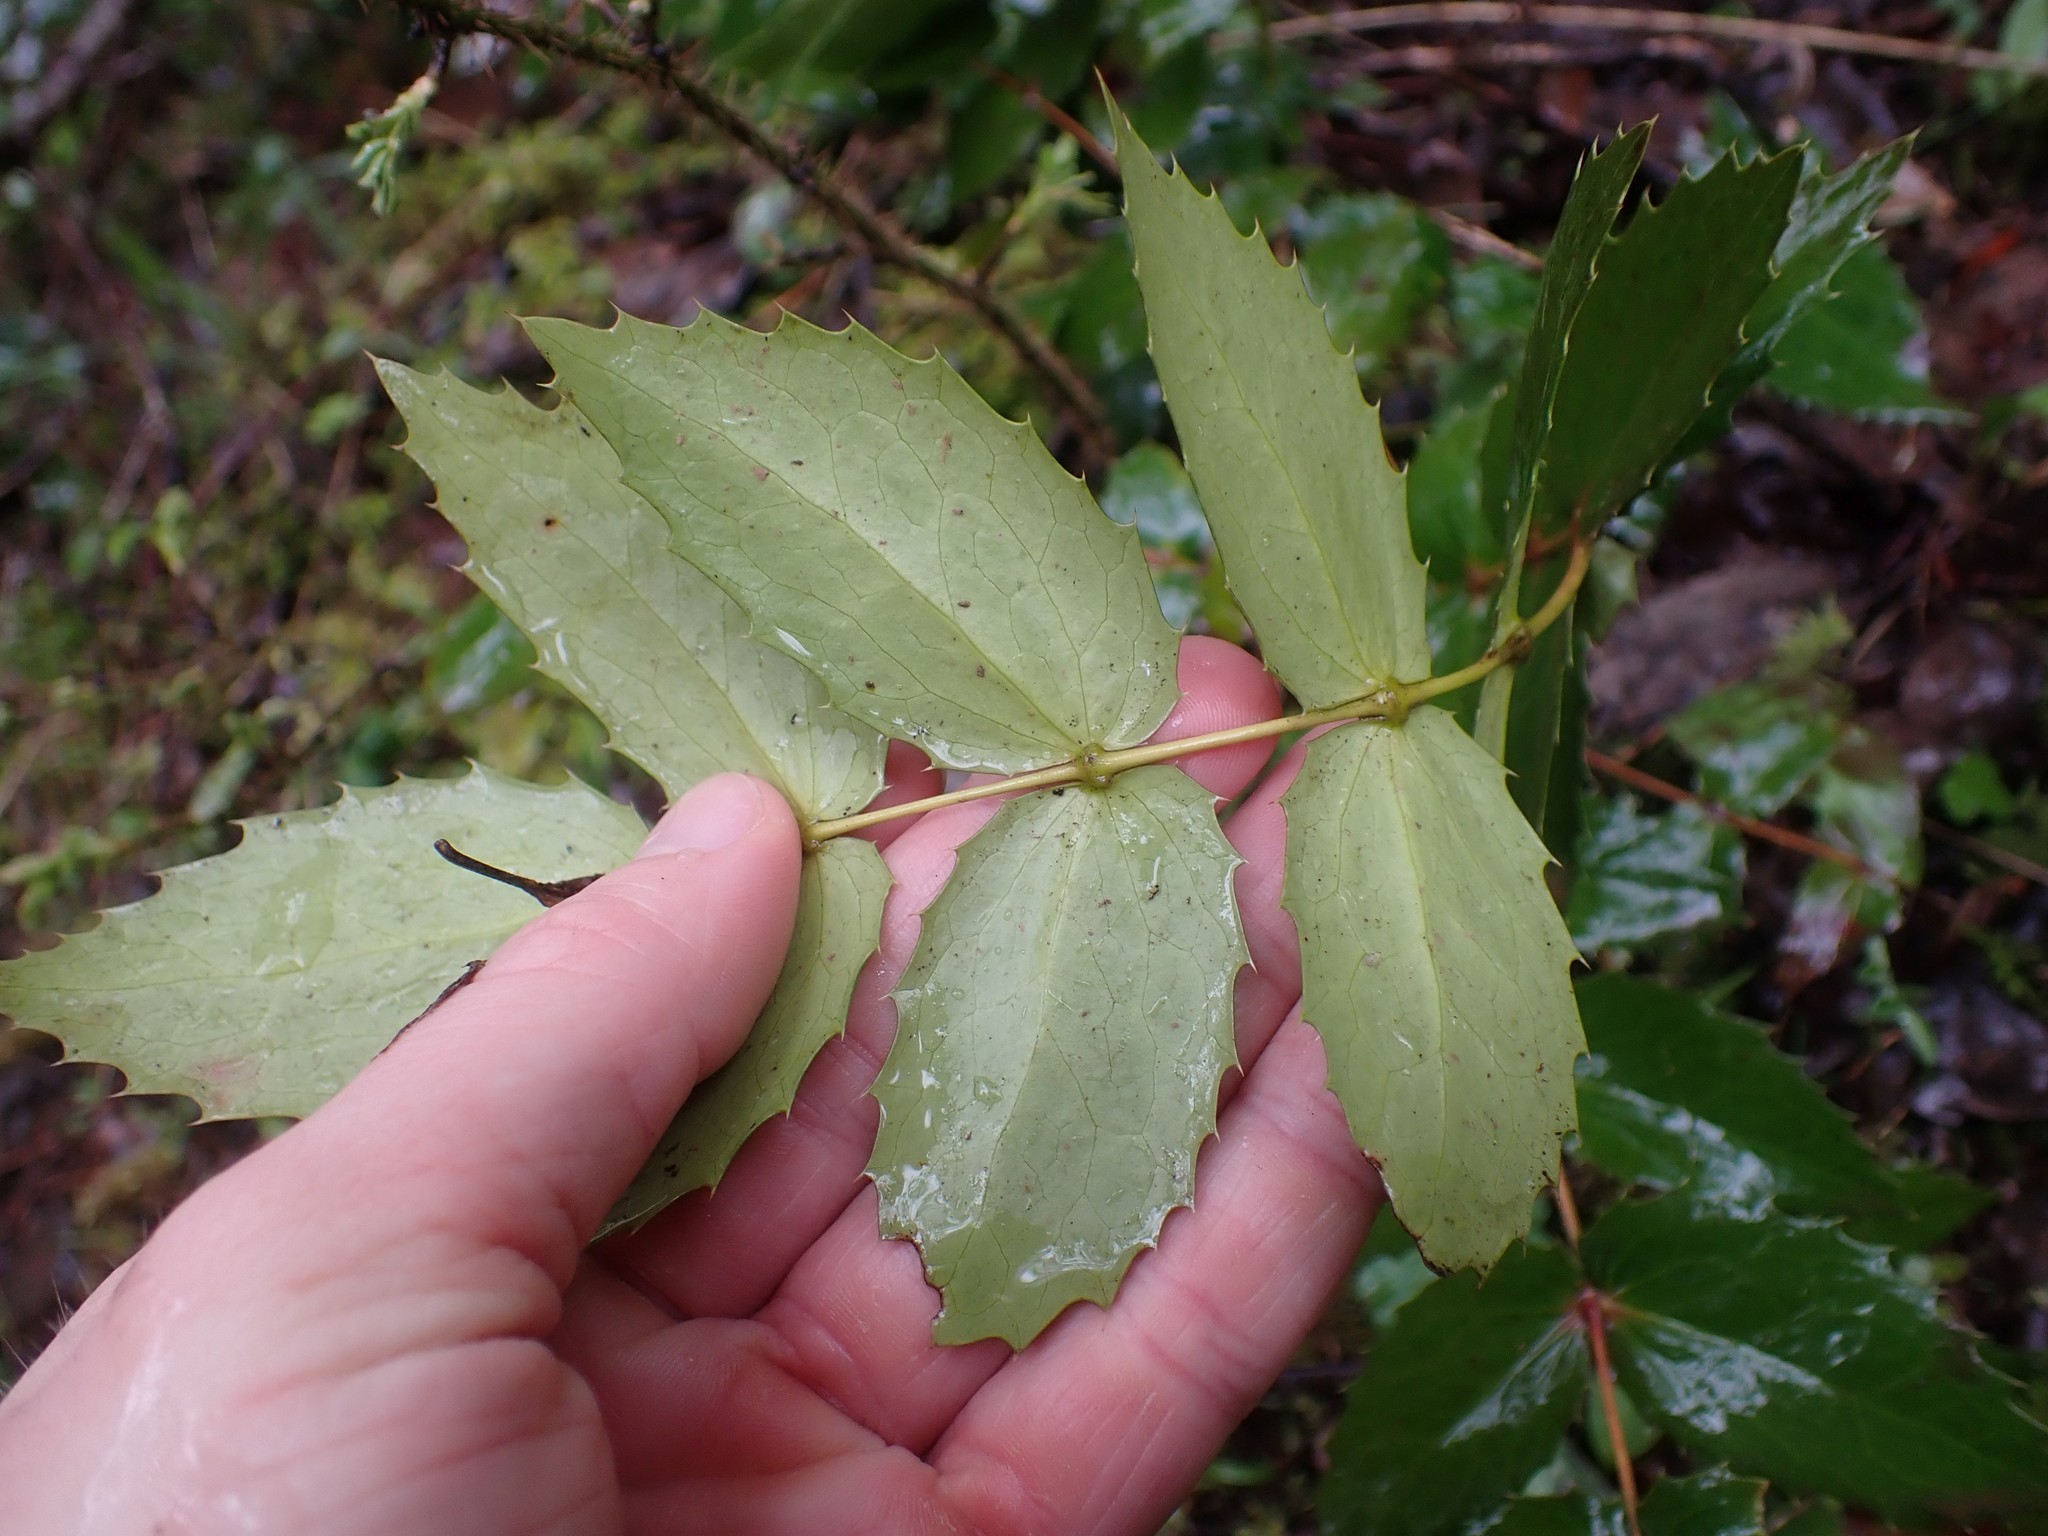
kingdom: Plantae
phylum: Tracheophyta
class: Magnoliopsida
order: Ranunculales
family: Berberidaceae
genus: Mahonia
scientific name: Mahonia nervosa
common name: Cascade oregon-grape
